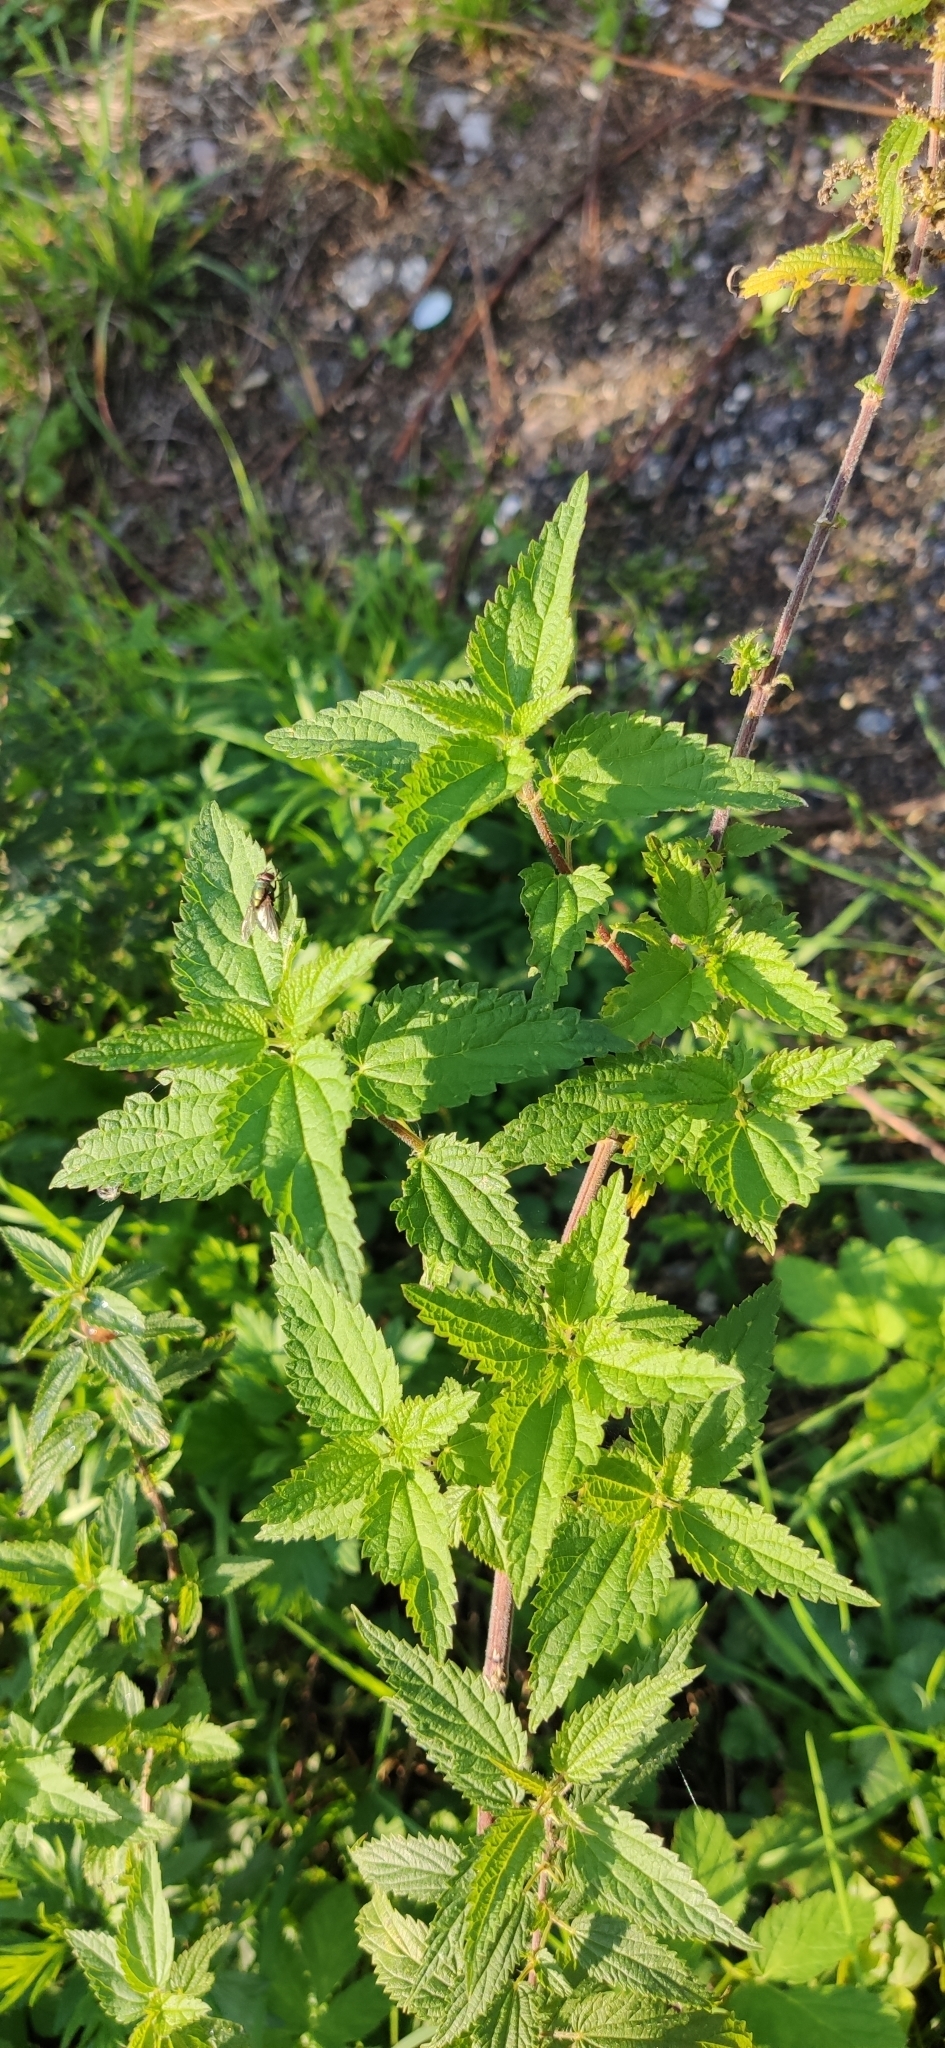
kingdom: Plantae
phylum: Tracheophyta
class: Magnoliopsida
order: Rosales
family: Urticaceae
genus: Urtica
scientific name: Urtica dioica
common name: Common nettle
